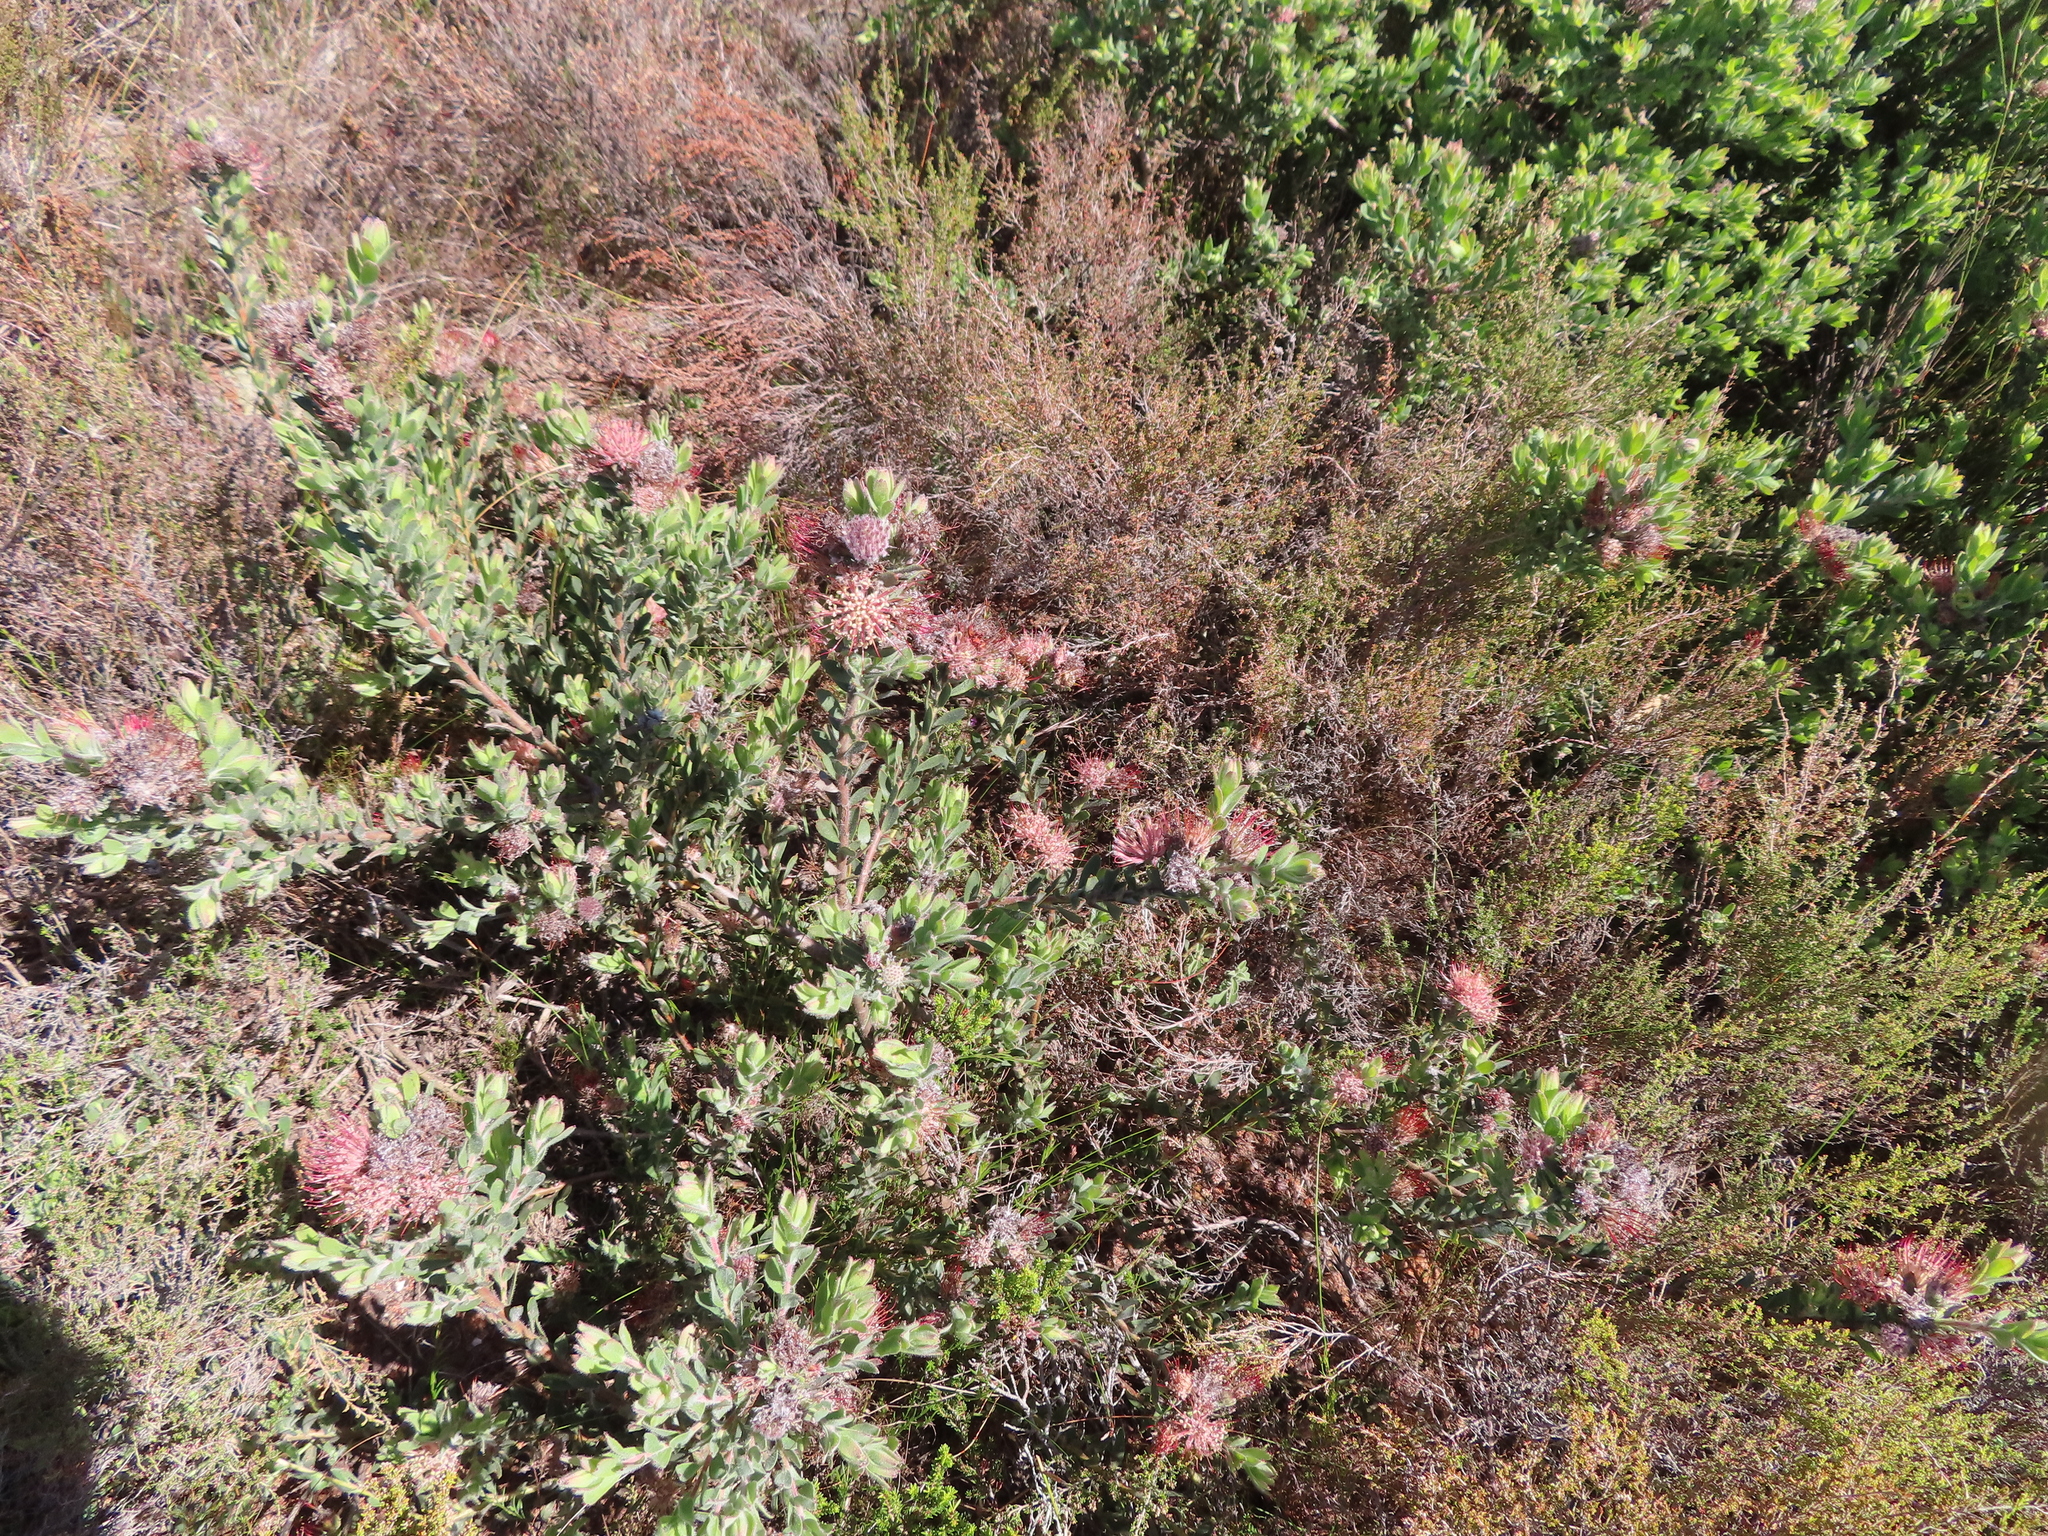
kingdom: Plantae
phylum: Tracheophyta
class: Magnoliopsida
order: Proteales
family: Proteaceae
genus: Leucospermum
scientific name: Leucospermum
